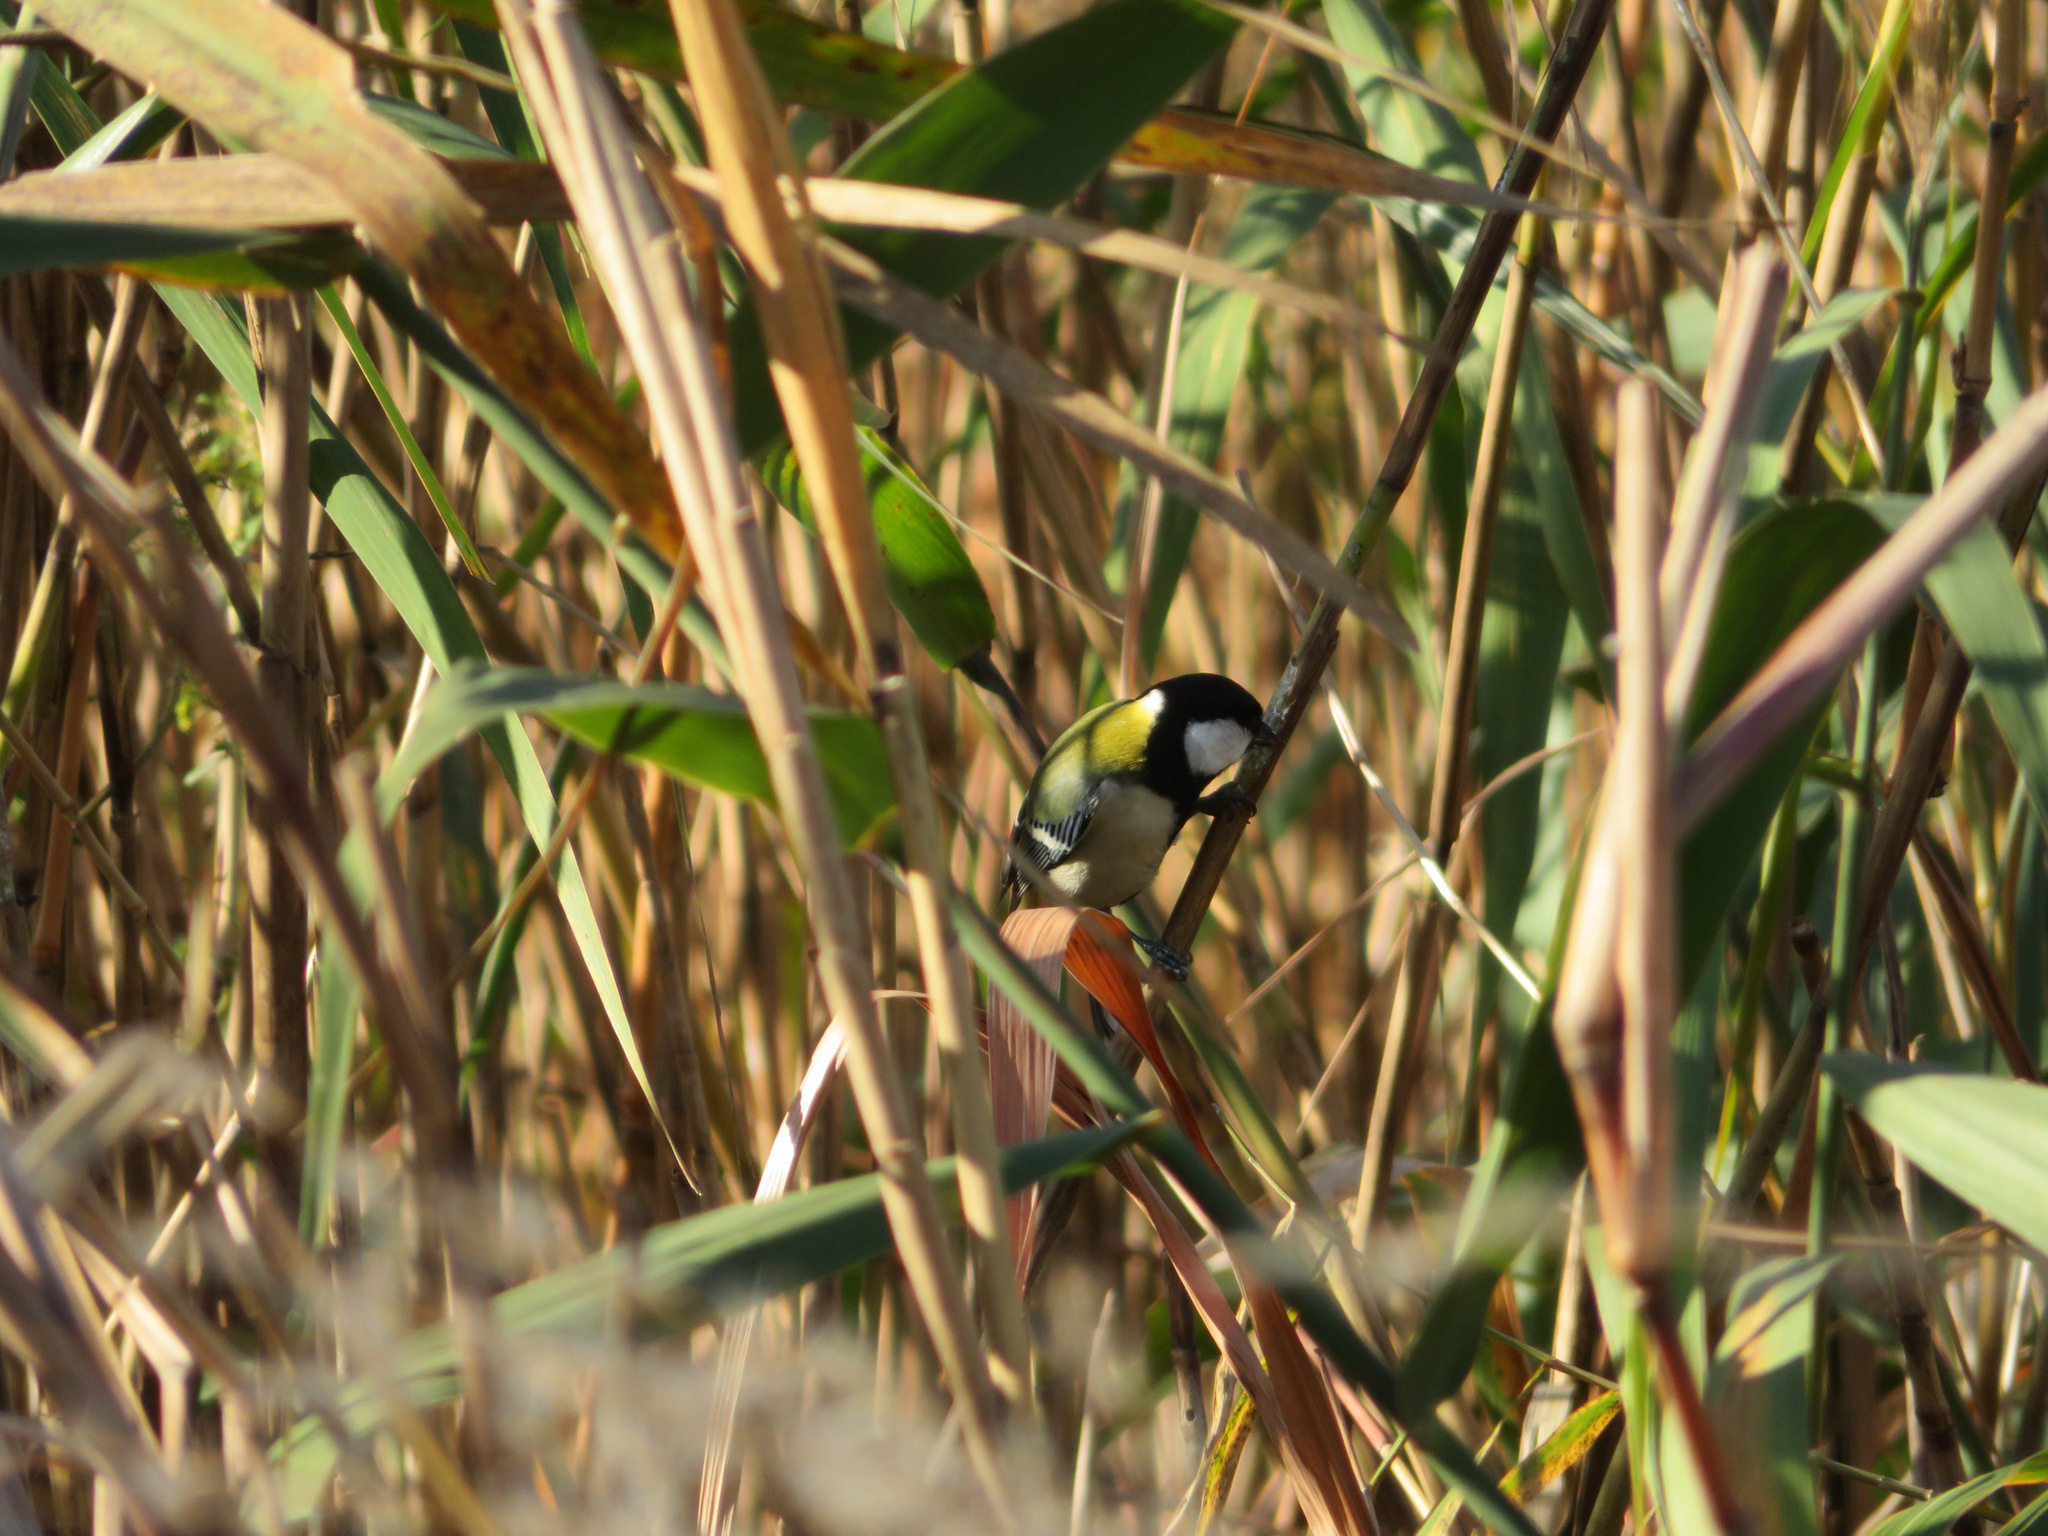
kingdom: Animalia
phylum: Chordata
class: Aves
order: Passeriformes
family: Paridae
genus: Parus
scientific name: Parus minor
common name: Japanese tit
